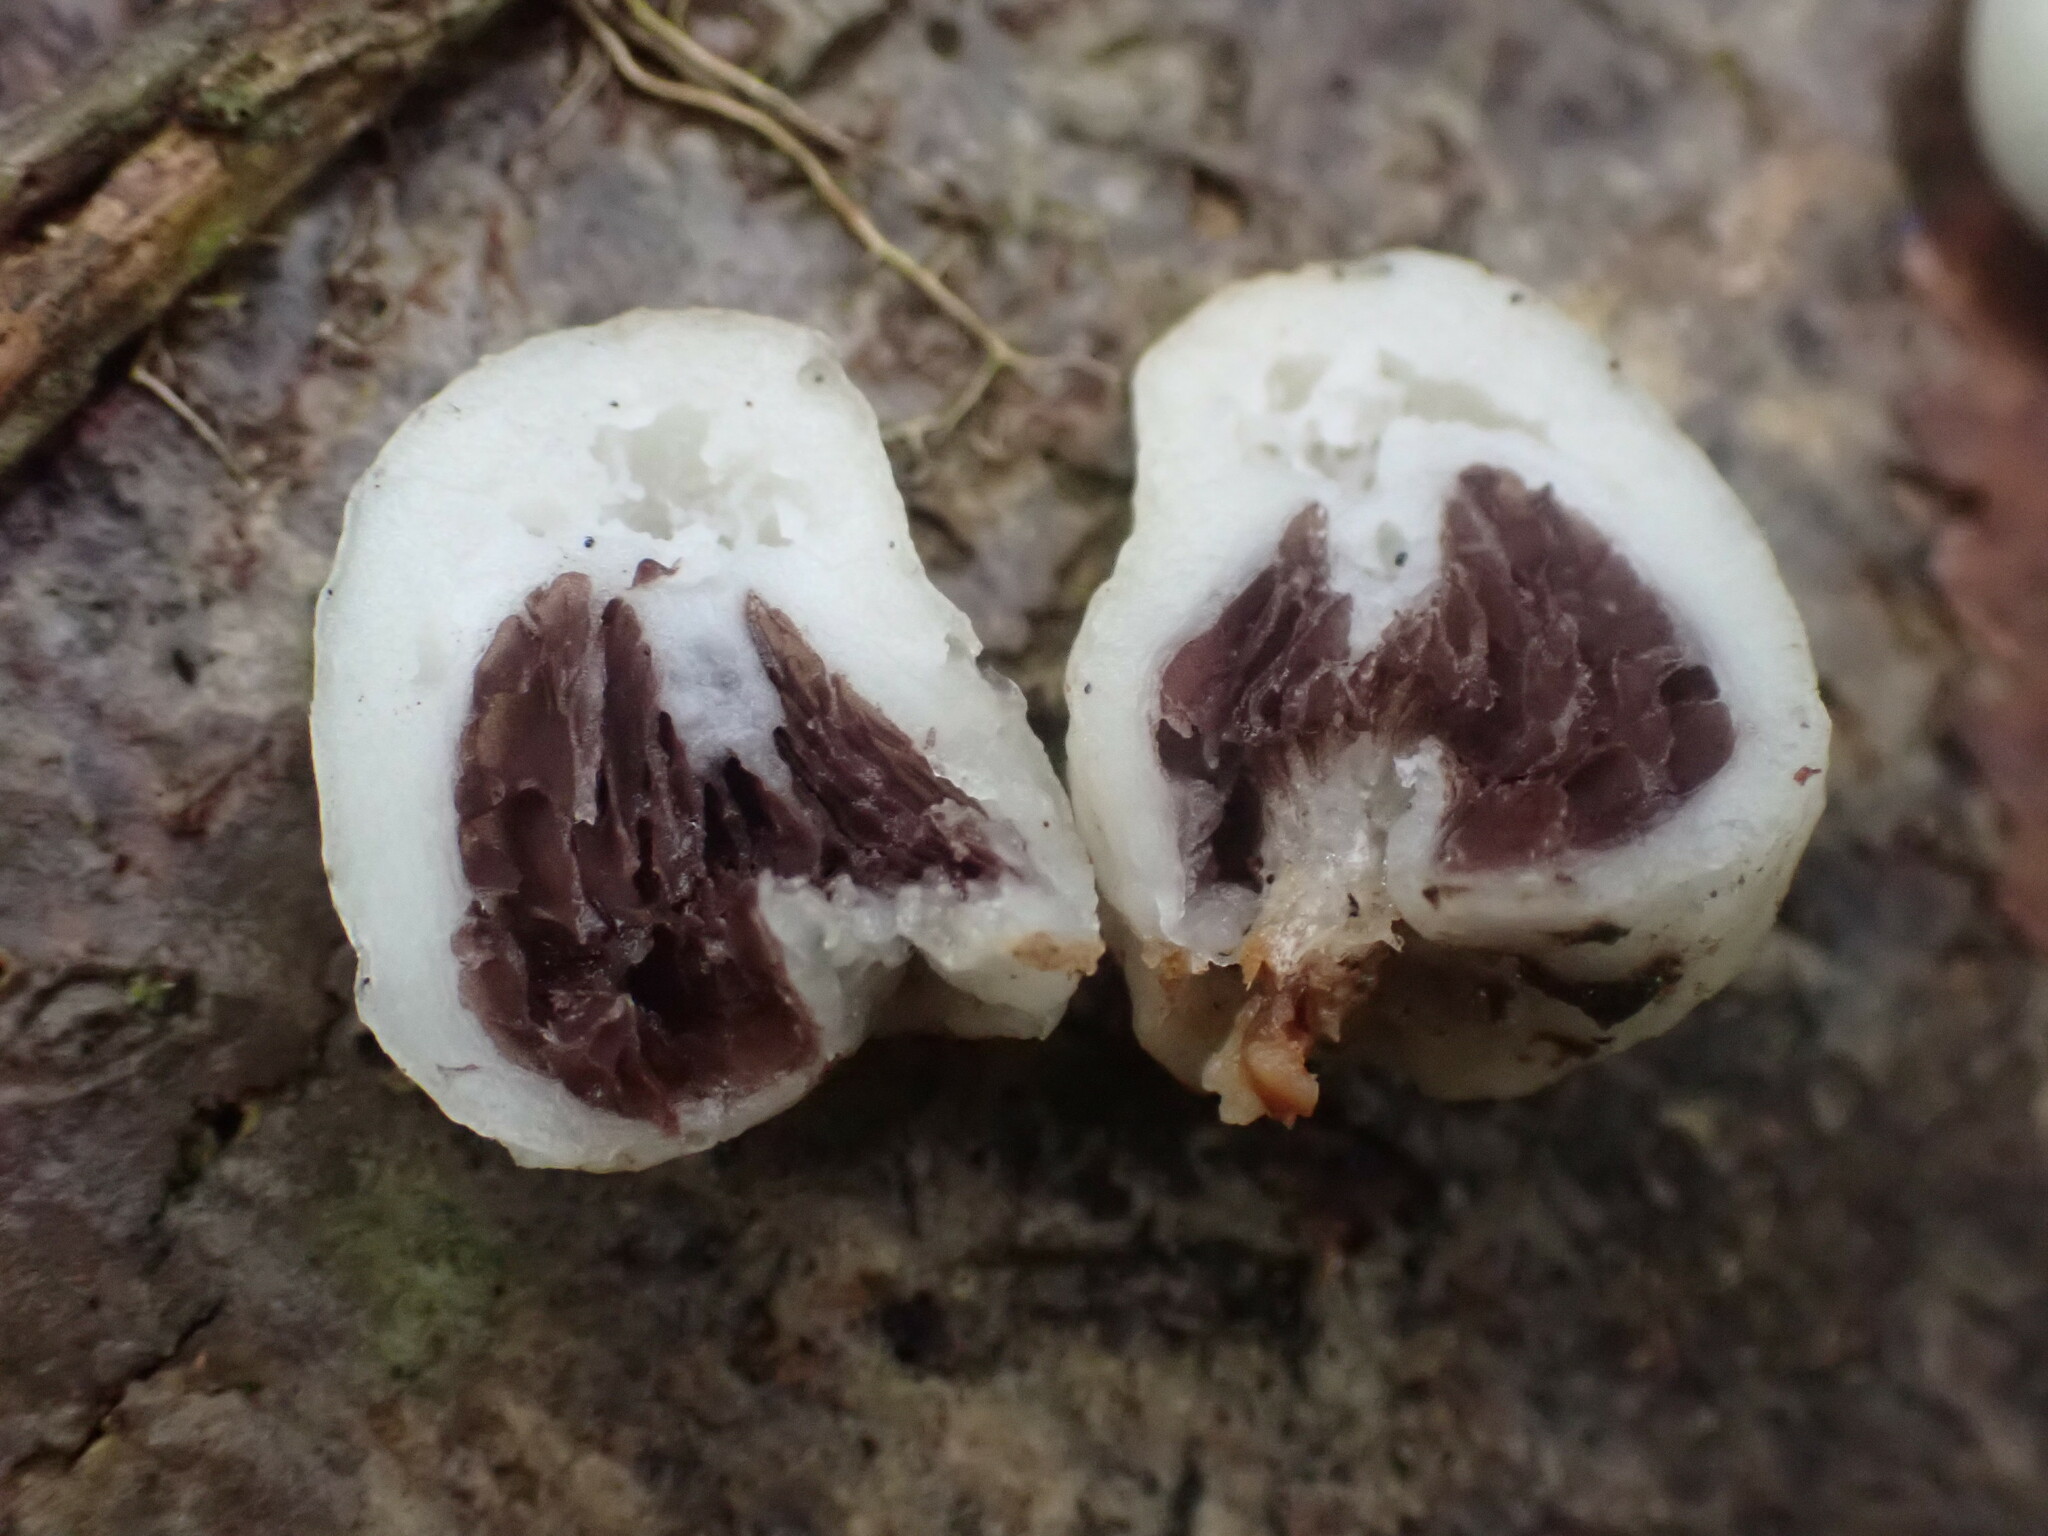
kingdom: Fungi
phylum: Basidiomycota
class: Agaricomycetes
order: Agaricales
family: Hymenogastraceae
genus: Psilocybe
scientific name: Psilocybe weraroa
